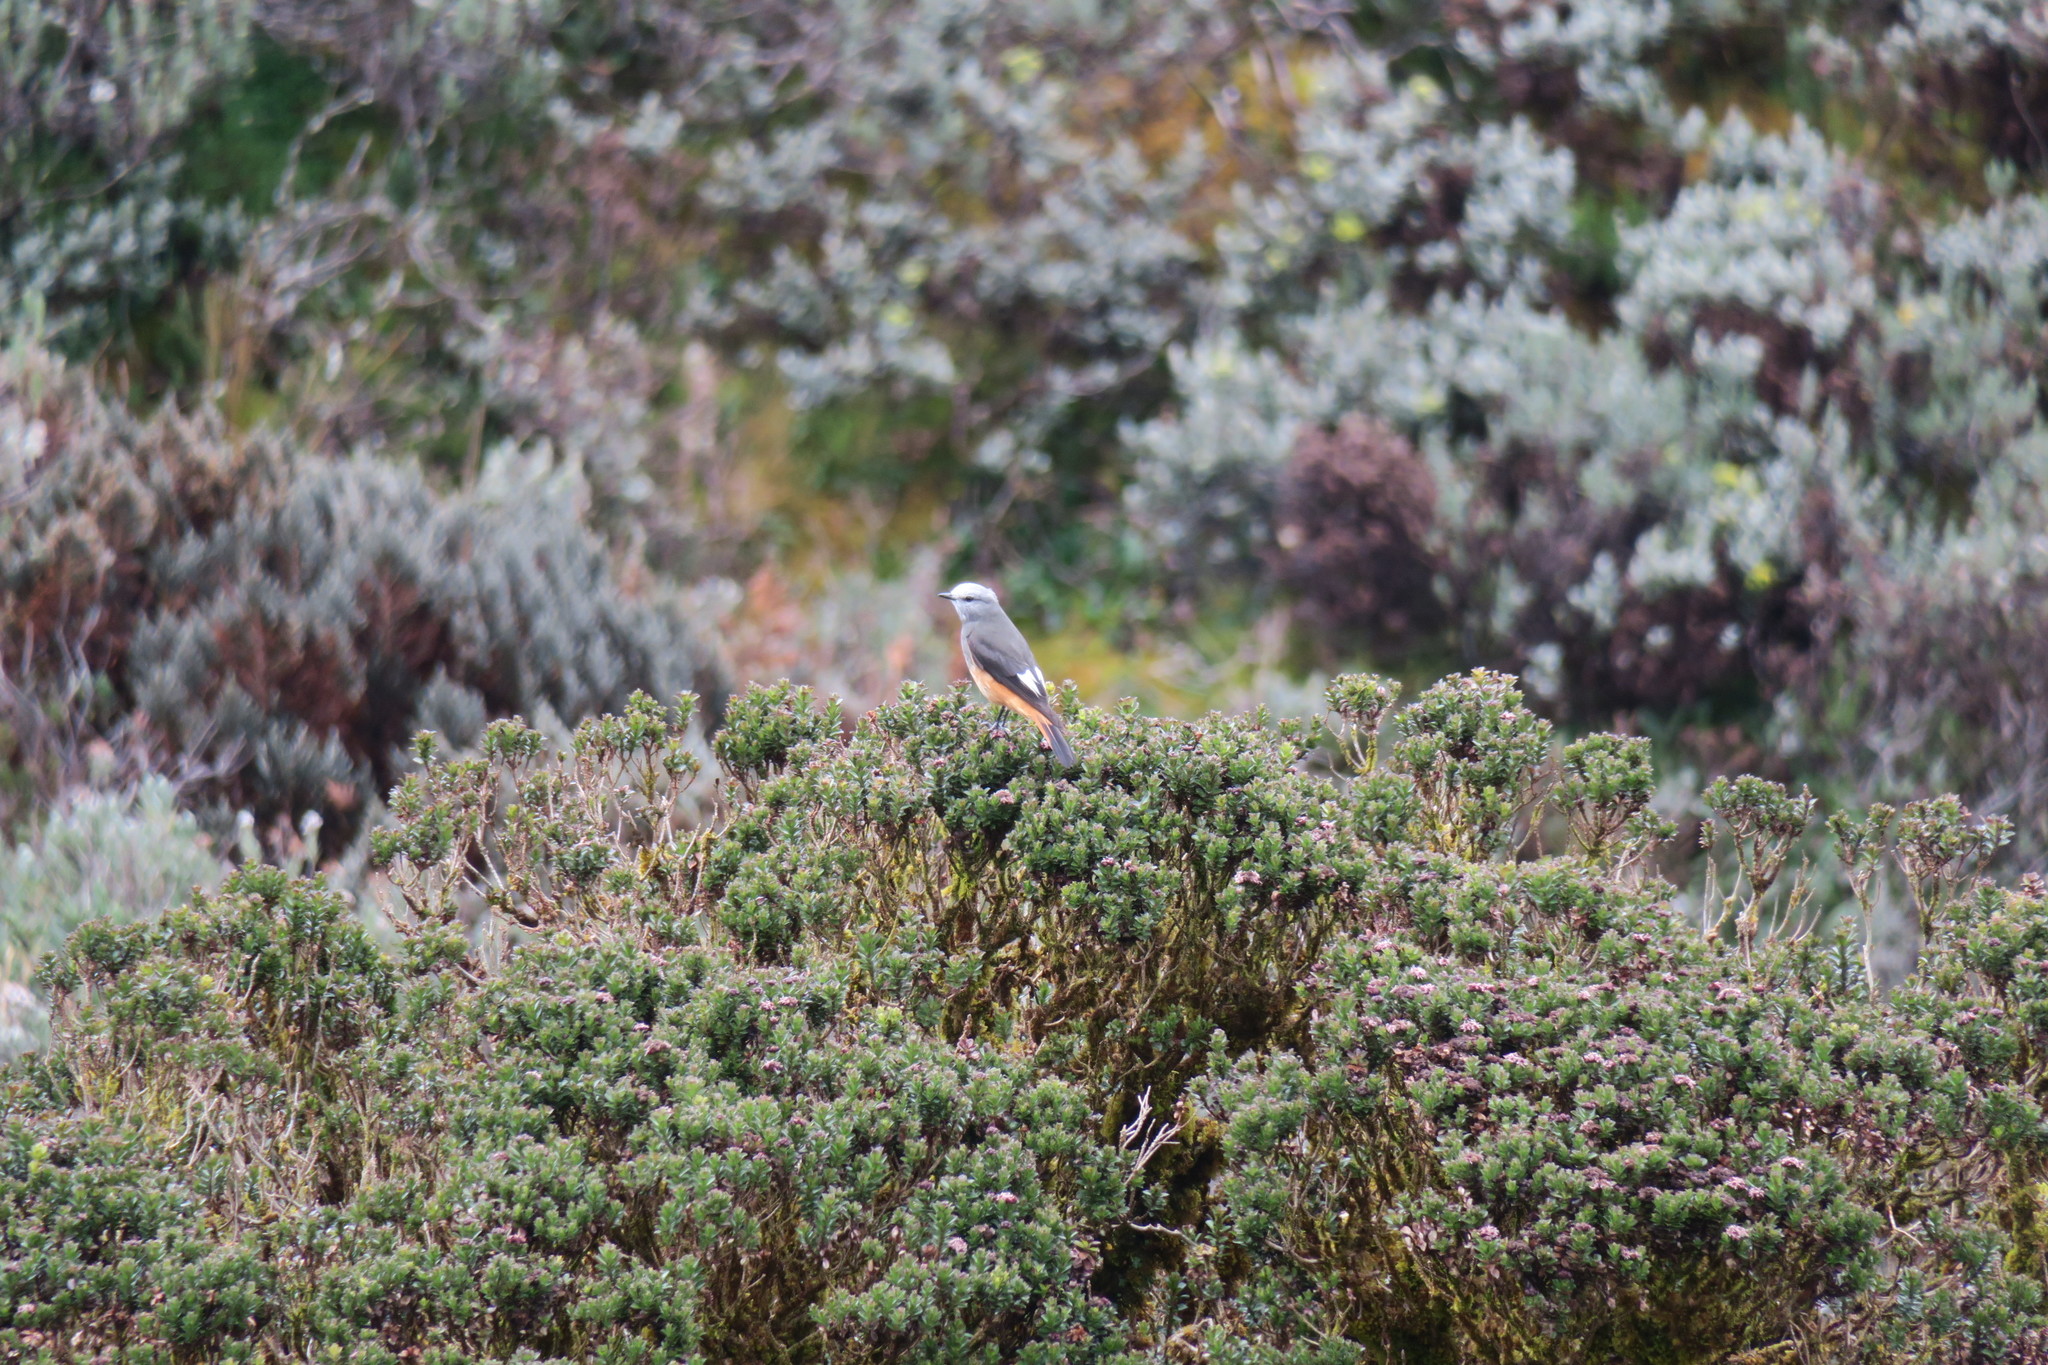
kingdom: Animalia
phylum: Chordata
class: Aves
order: Passeriformes
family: Tyrannidae
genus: Cnemarchus
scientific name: Cnemarchus erythropygius
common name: Red-rumped bush tyrant
